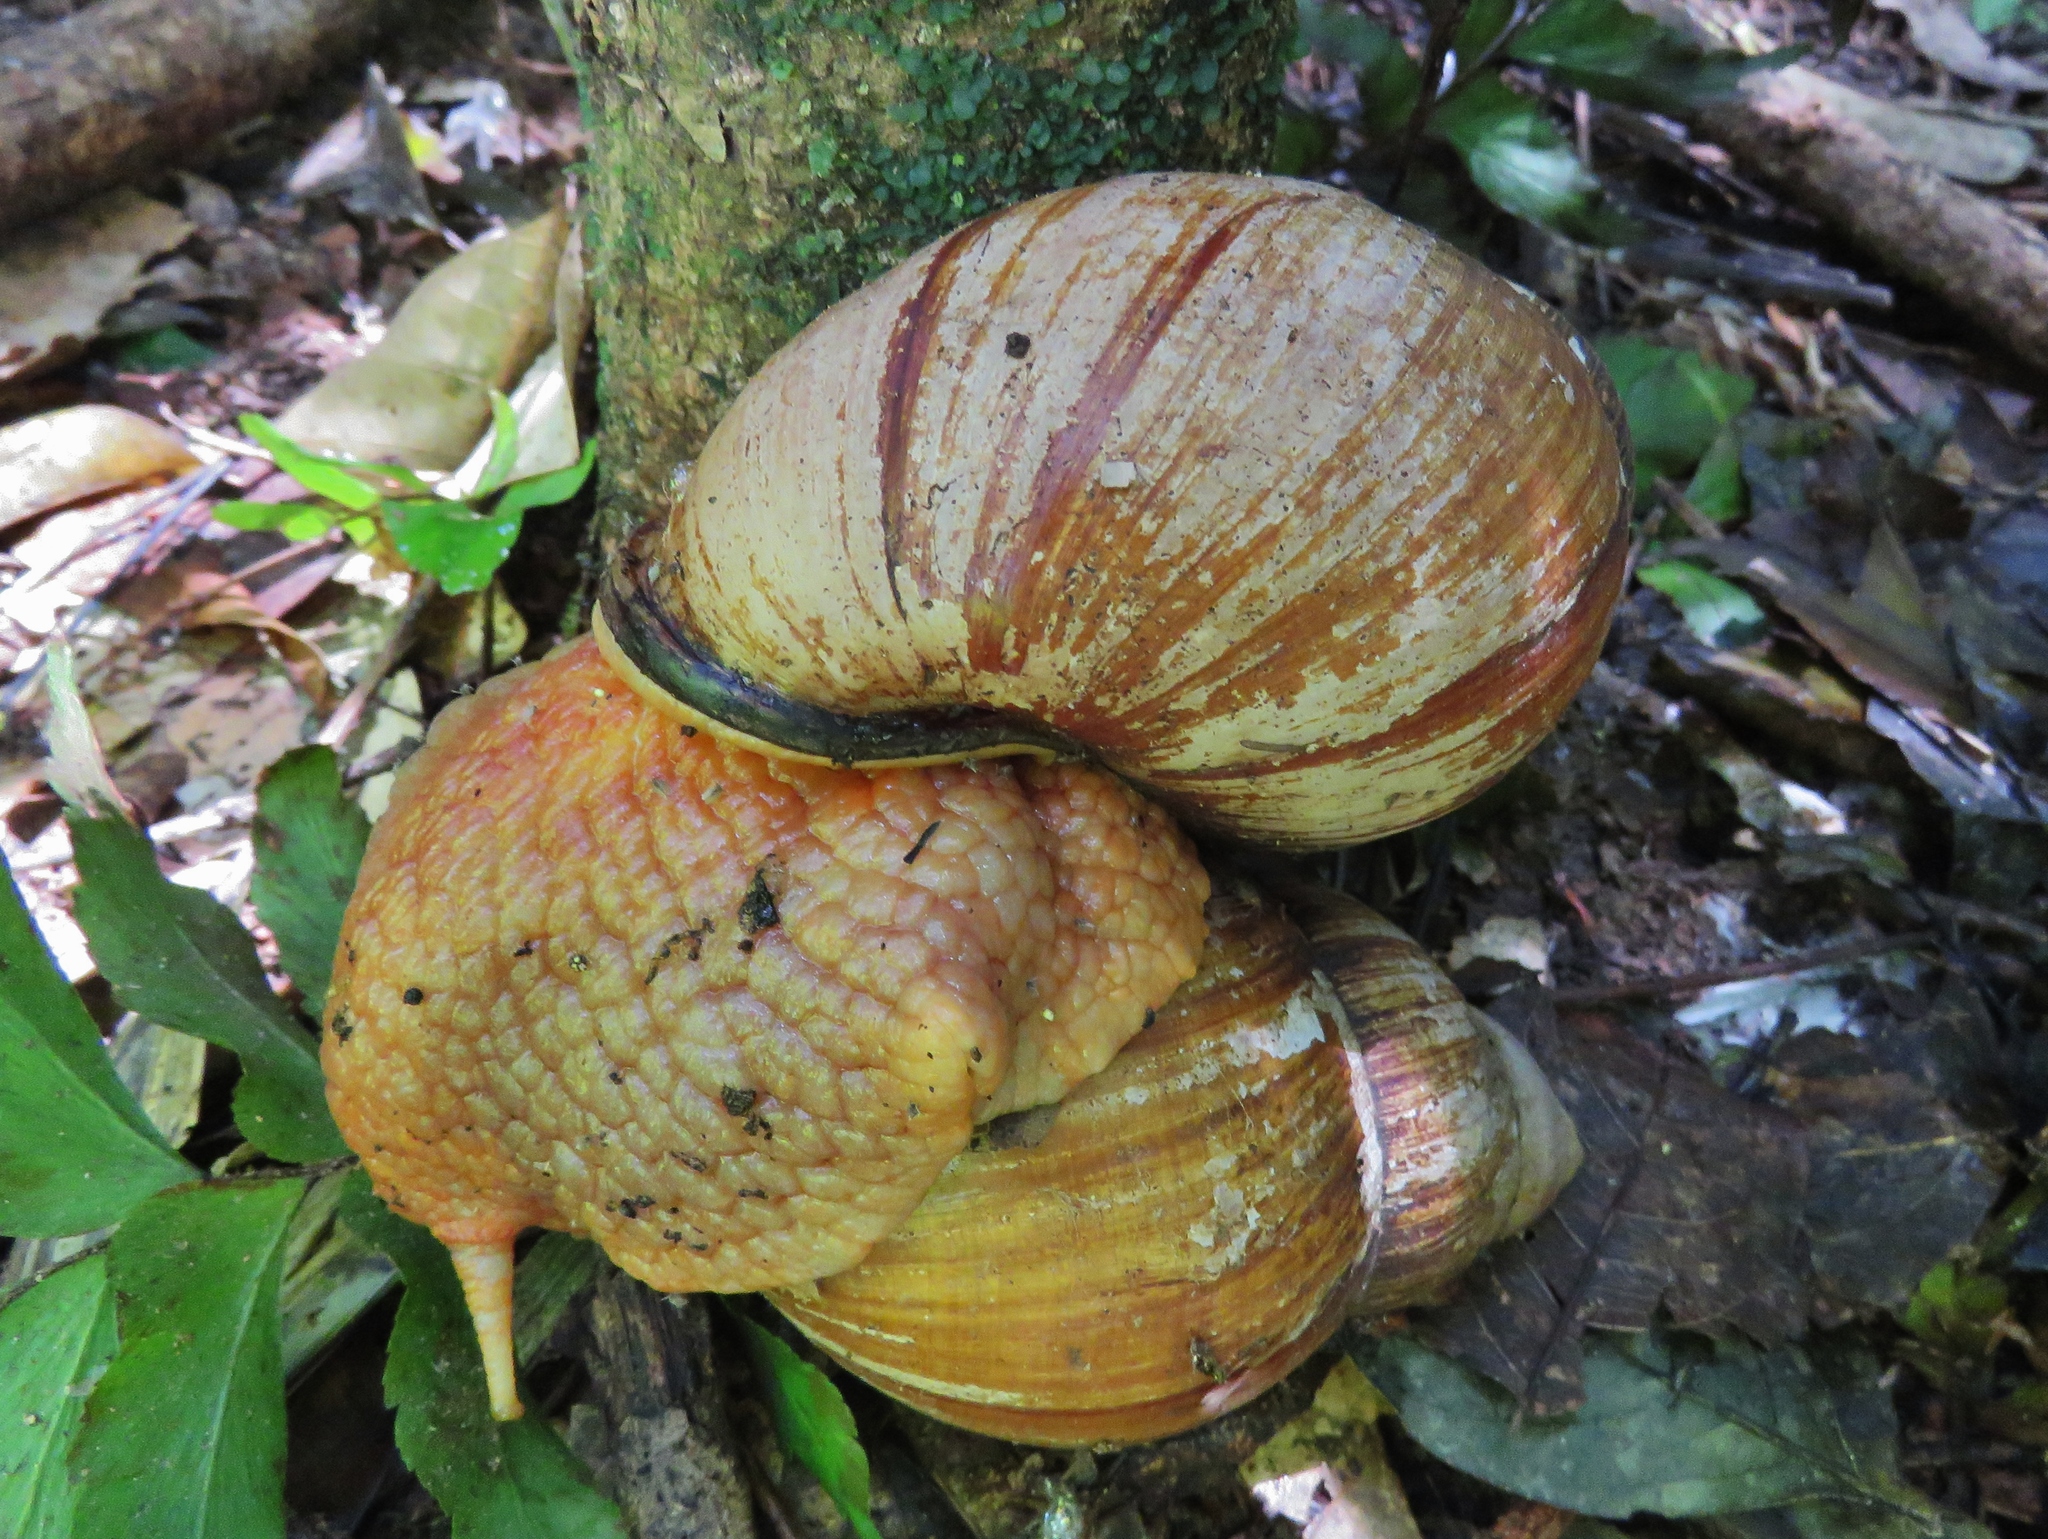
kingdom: Animalia
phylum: Mollusca
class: Gastropoda
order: Stylommatophora
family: Strophocheilidae
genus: Megalobulimus
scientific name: Megalobulimus
